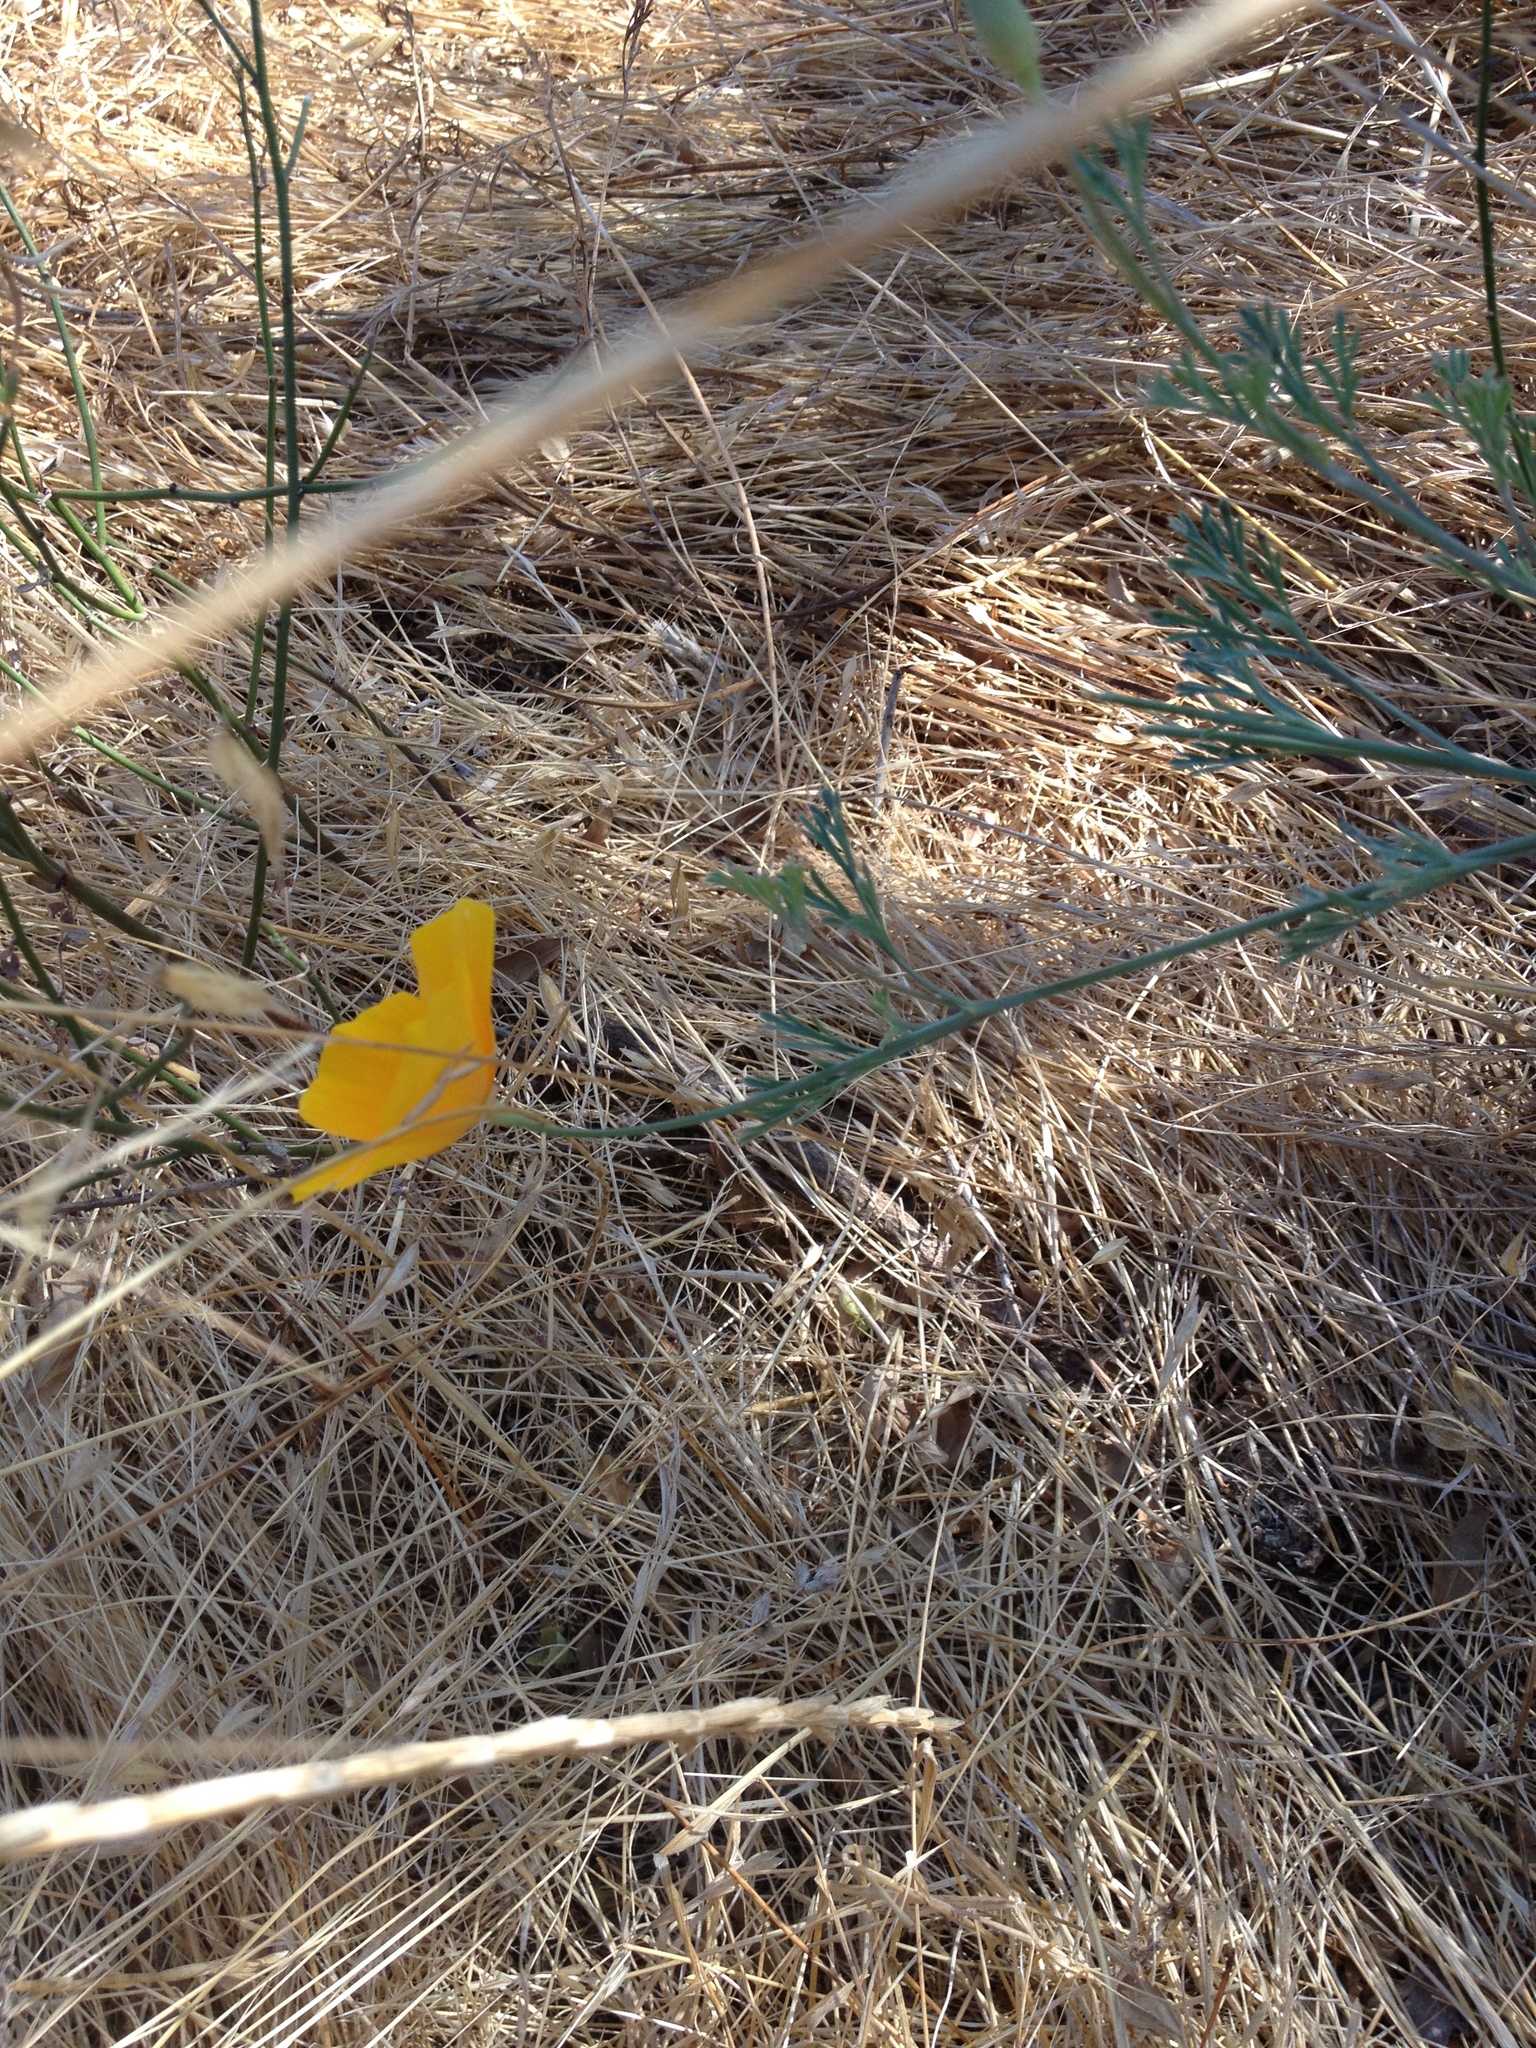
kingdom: Plantae
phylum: Tracheophyta
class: Magnoliopsida
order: Ranunculales
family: Papaveraceae
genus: Eschscholzia
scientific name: Eschscholzia californica
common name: California poppy
